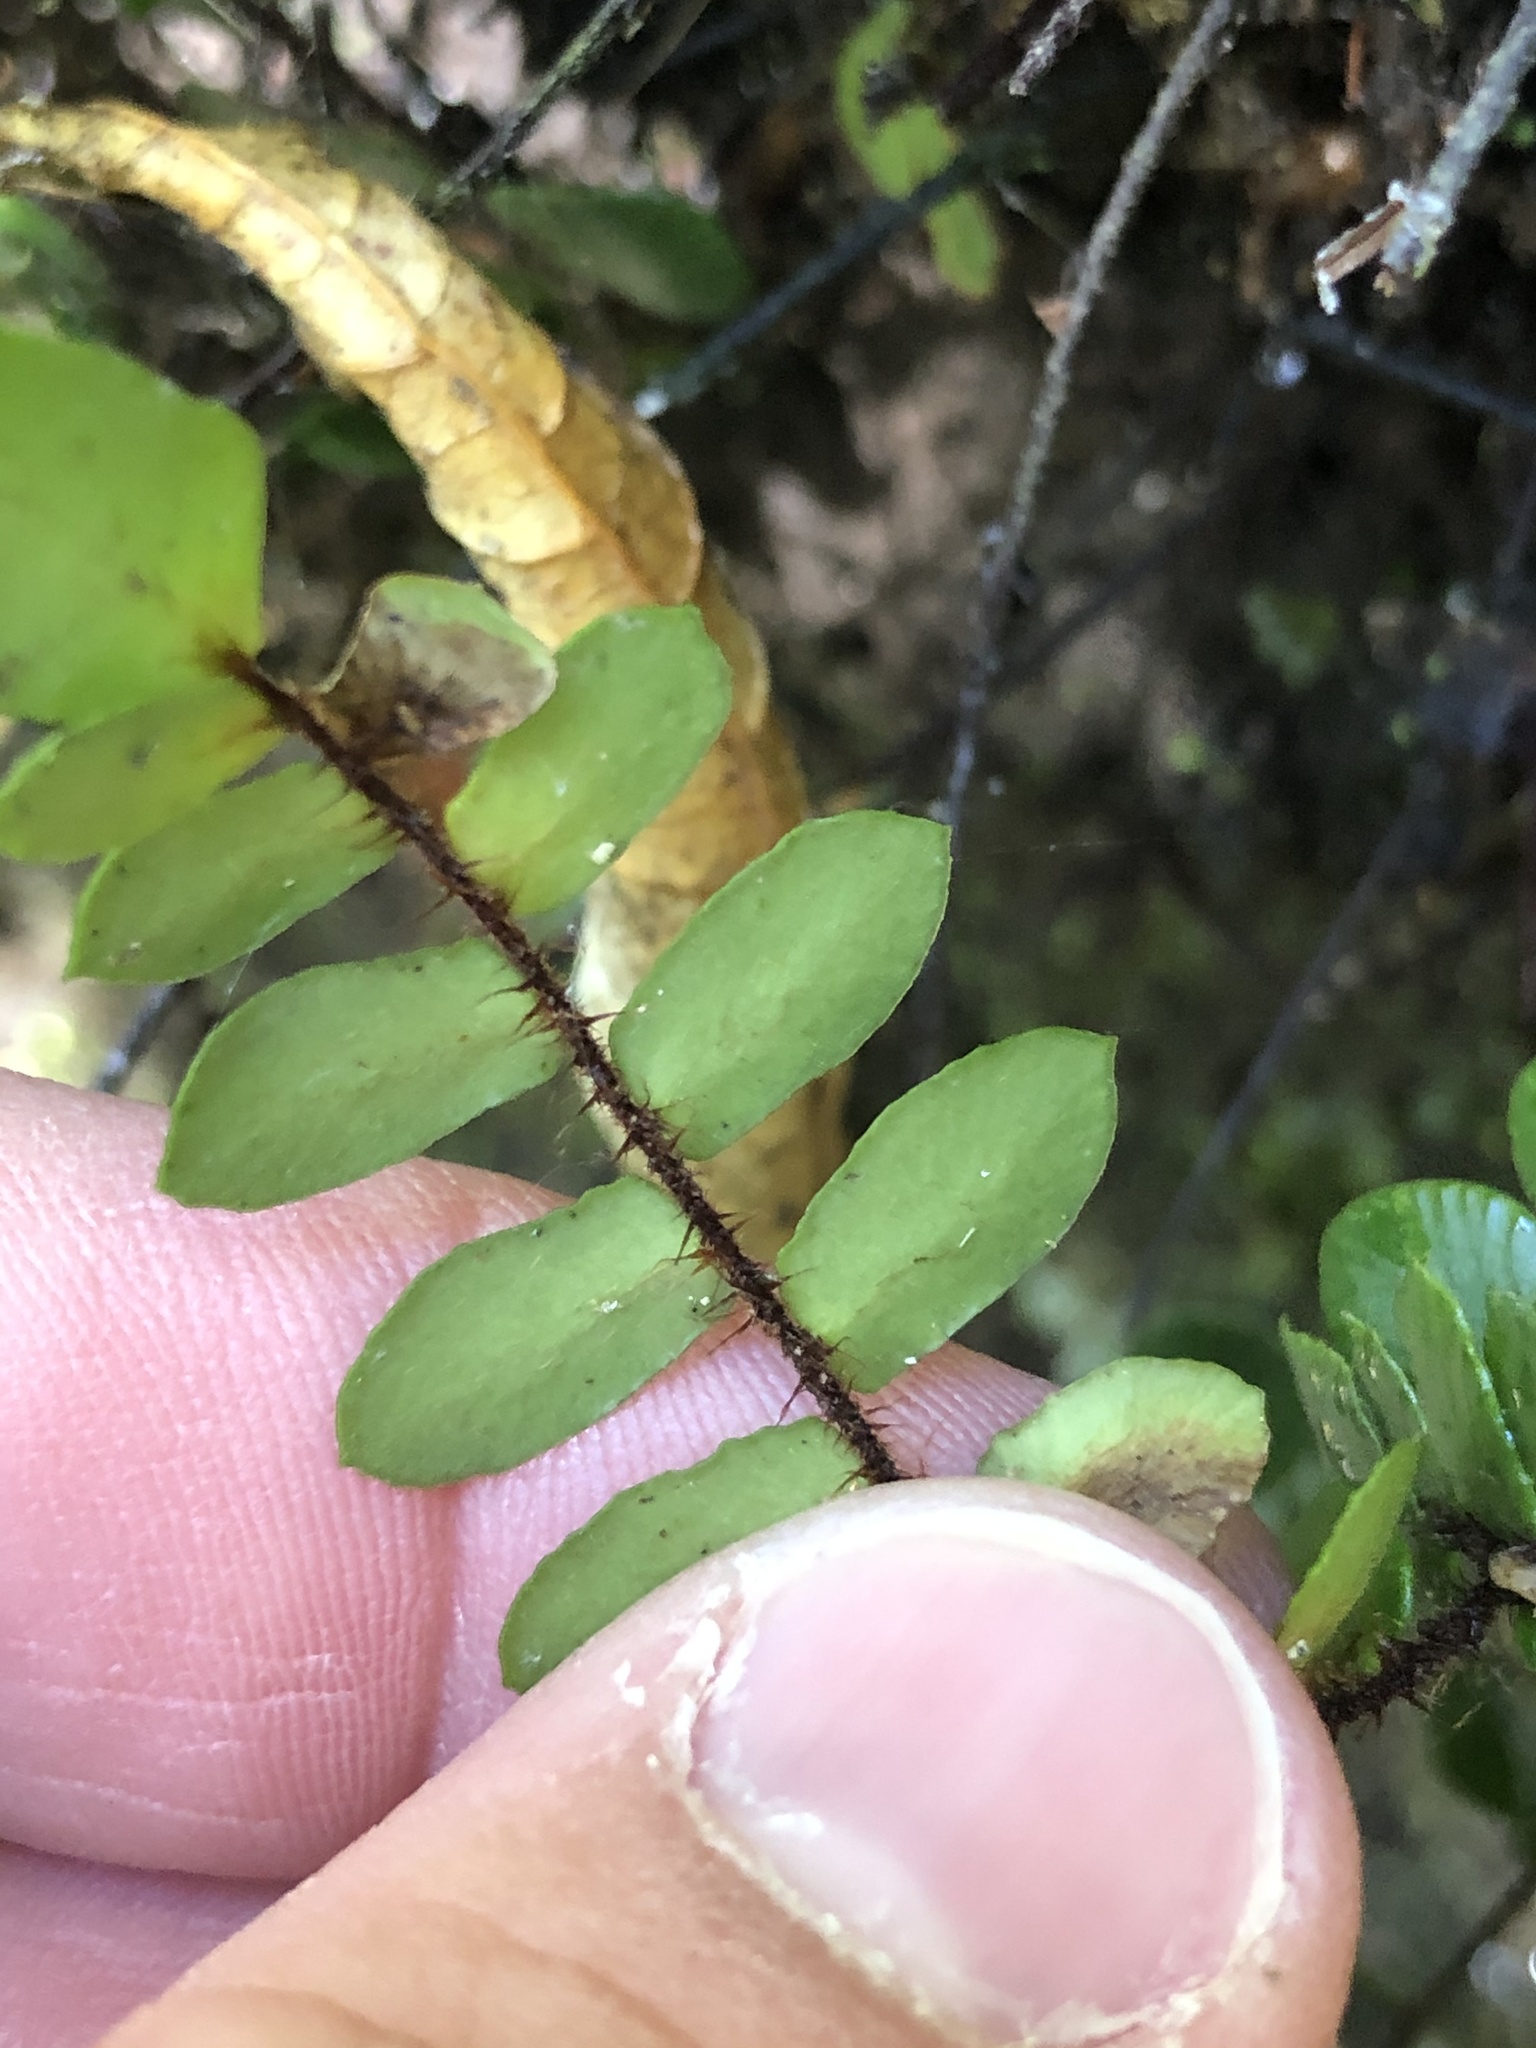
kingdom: Plantae
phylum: Tracheophyta
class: Polypodiopsida
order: Polypodiales
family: Pteridaceae
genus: Pellaea
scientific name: Pellaea rotundifolia
